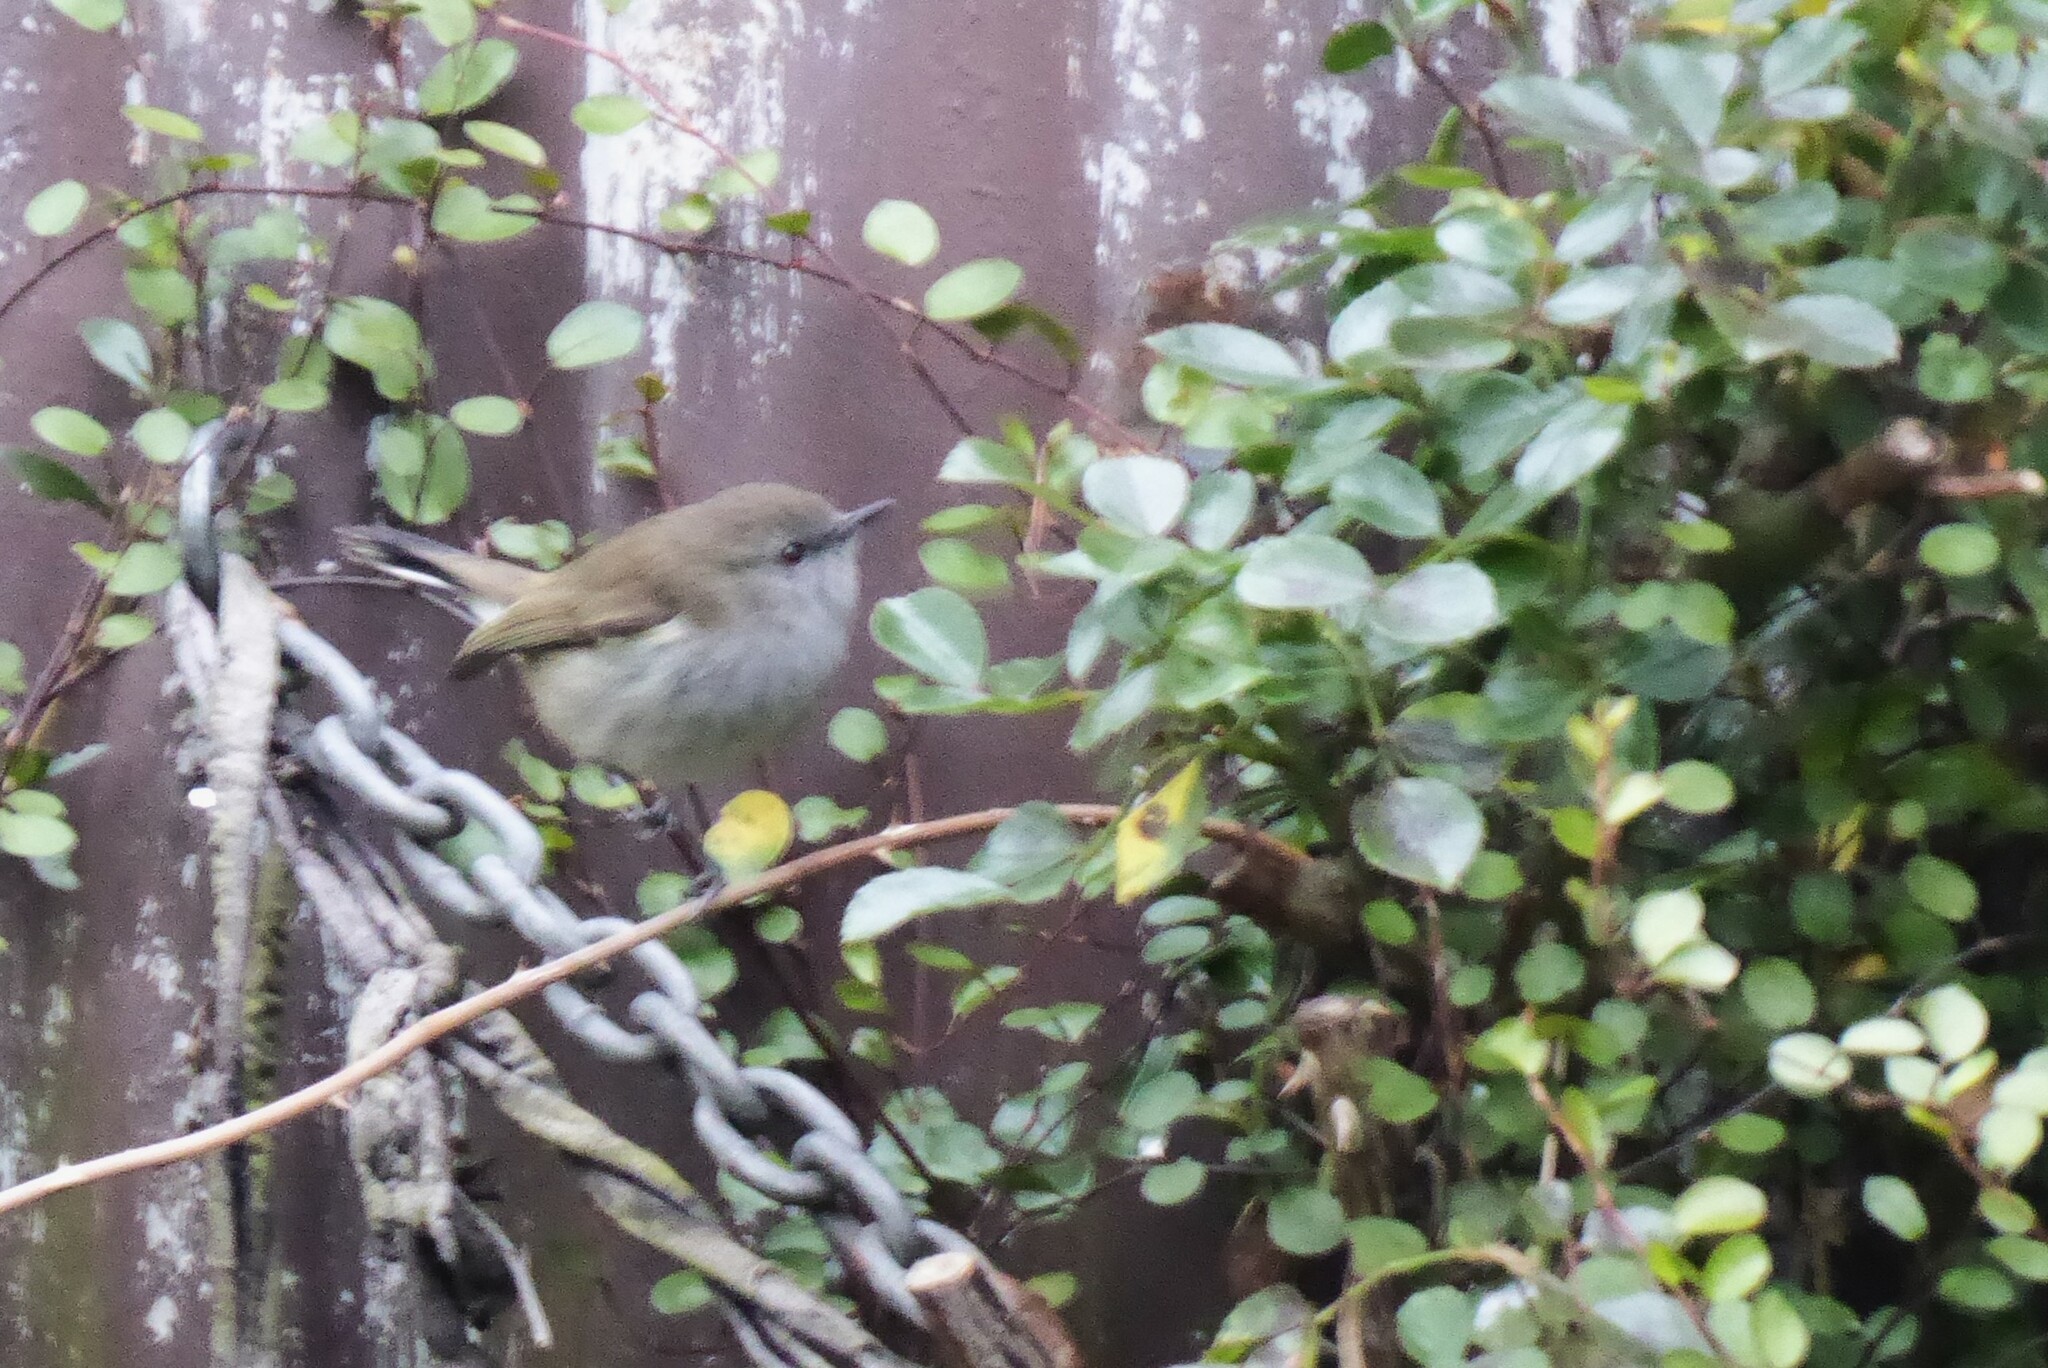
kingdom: Animalia
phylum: Chordata
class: Aves
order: Passeriformes
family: Acanthizidae
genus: Gerygone
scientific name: Gerygone igata
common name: Grey gerygone
